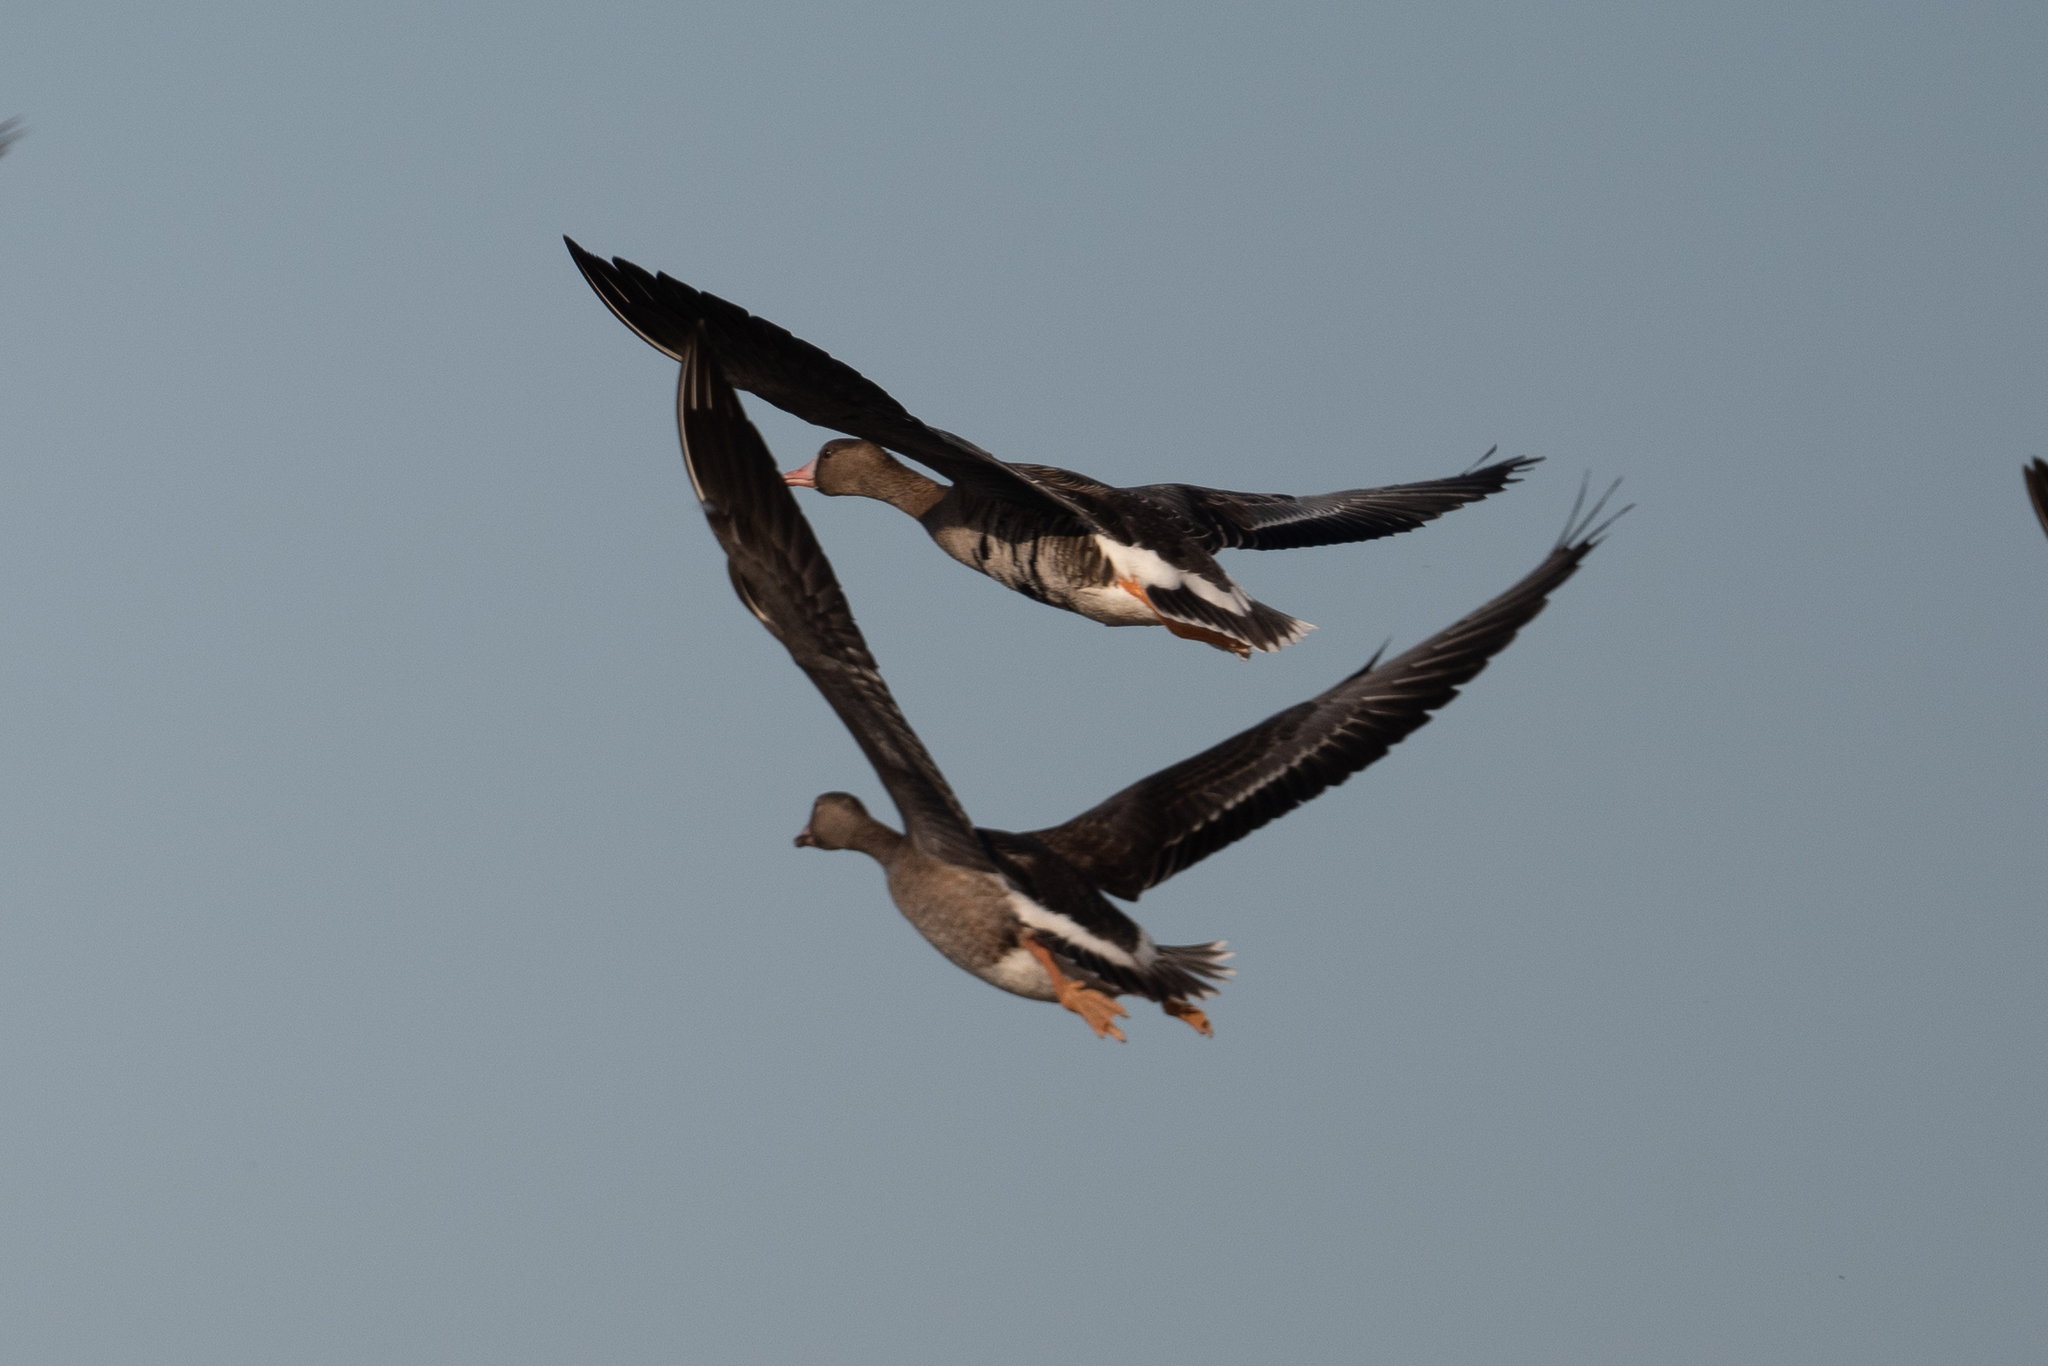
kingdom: Animalia
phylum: Chordata
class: Aves
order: Anseriformes
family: Anatidae
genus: Anser
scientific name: Anser albifrons
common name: Greater white-fronted goose
